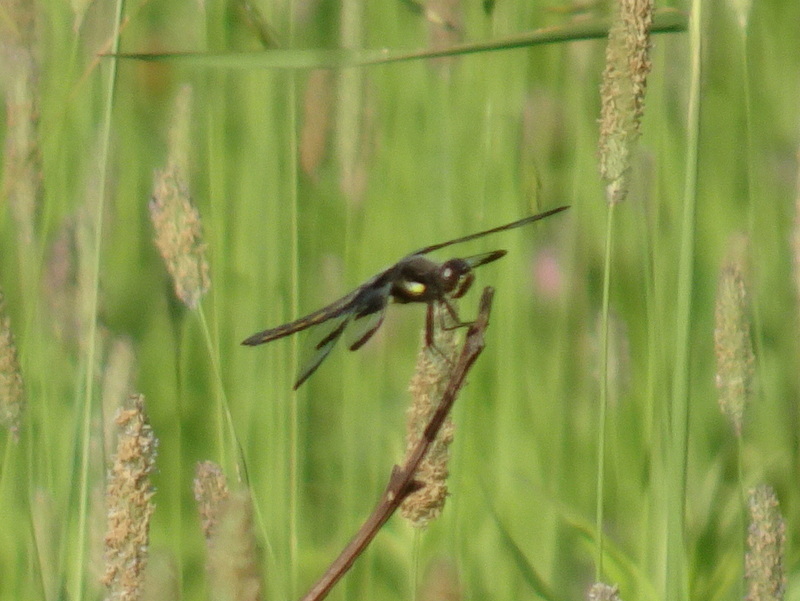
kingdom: Animalia
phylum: Arthropoda
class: Insecta
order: Odonata
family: Libellulidae
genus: Libellula
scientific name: Libellula pulchella
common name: Twelve-spotted skimmer
